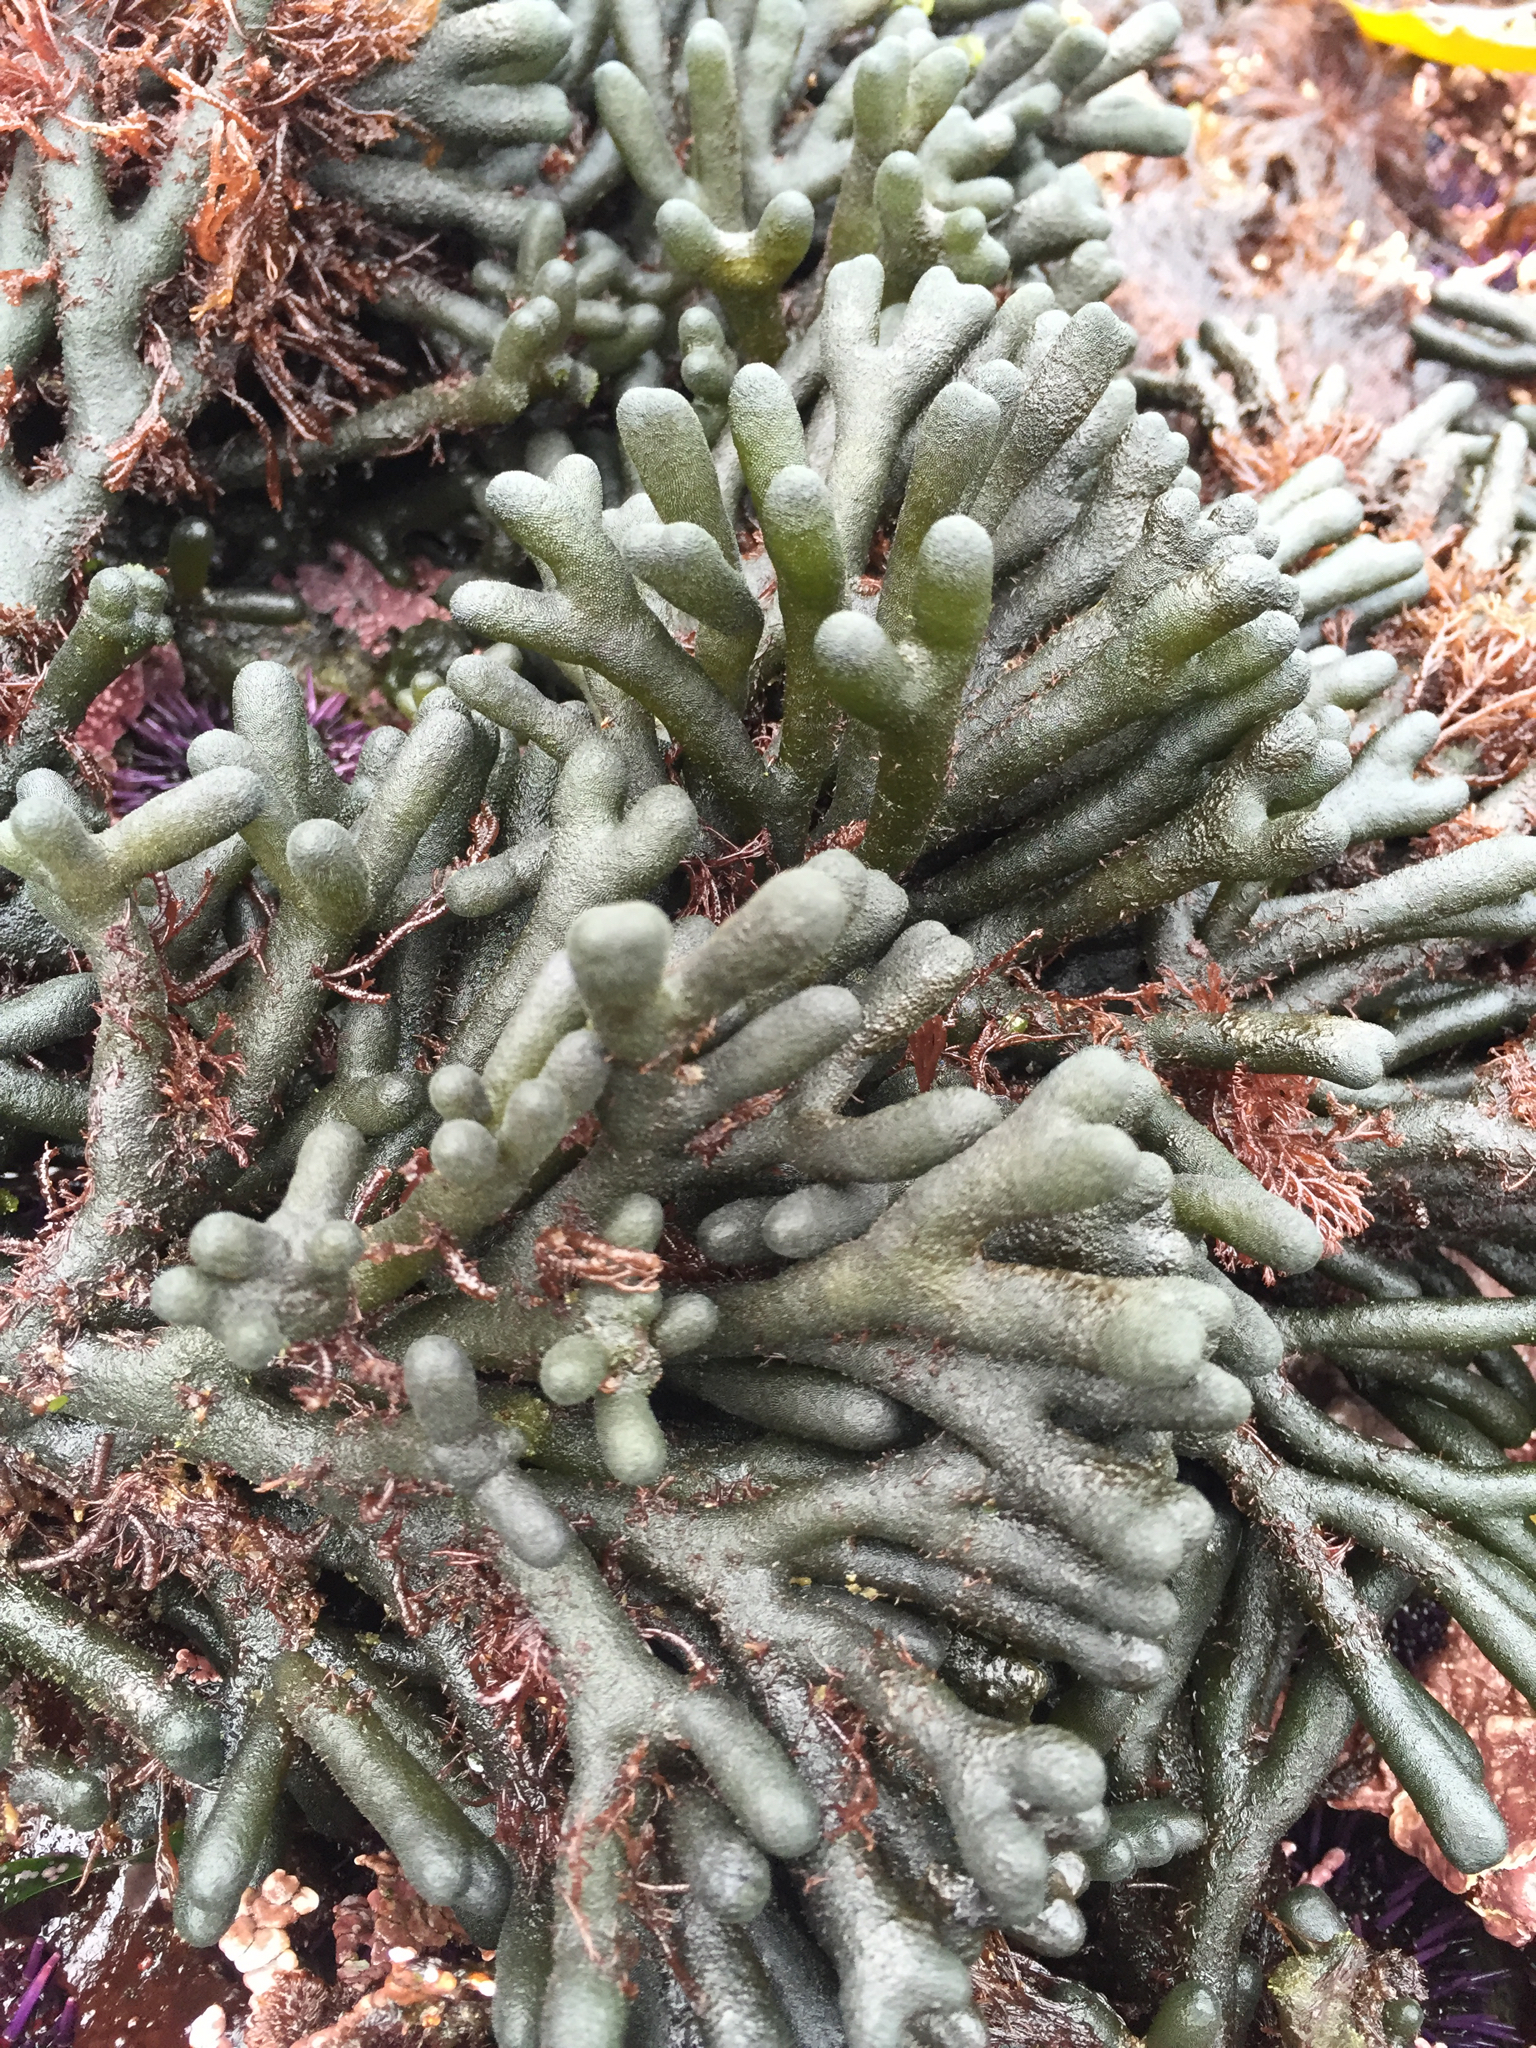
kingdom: Plantae
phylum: Chlorophyta
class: Ulvophyceae
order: Bryopsidales
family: Codiaceae
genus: Codium
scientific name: Codium fragile
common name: Dead man's fingers
